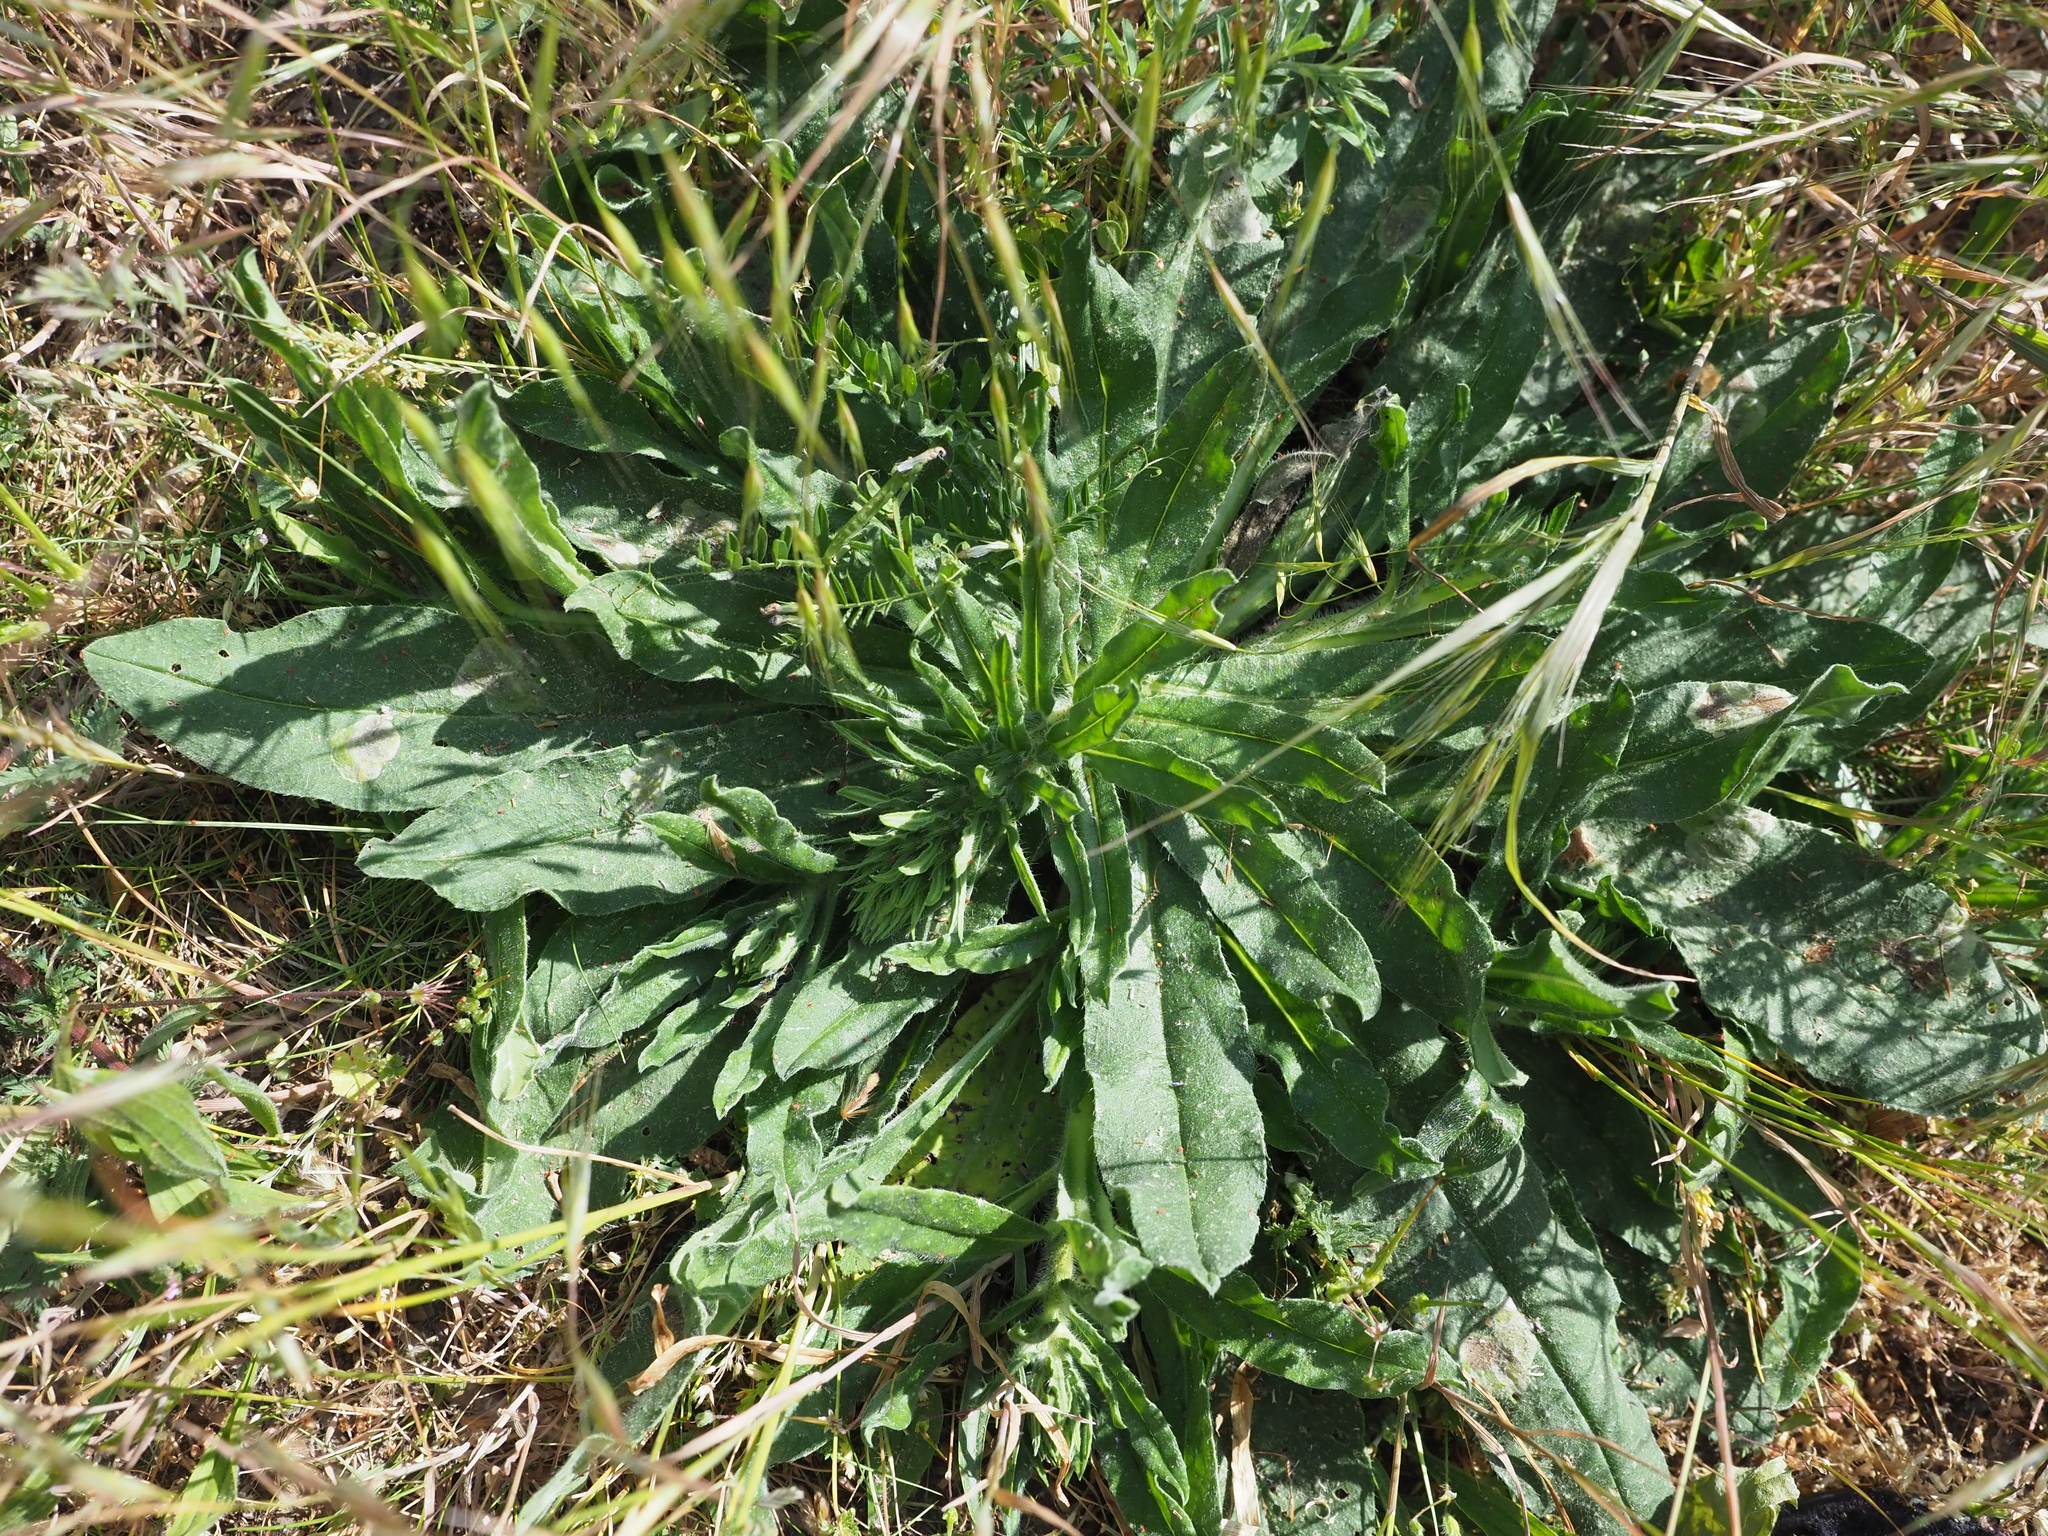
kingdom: Plantae
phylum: Tracheophyta
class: Magnoliopsida
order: Boraginales
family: Boraginaceae
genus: Echium
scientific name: Echium vulgare
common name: Common viper's bugloss
